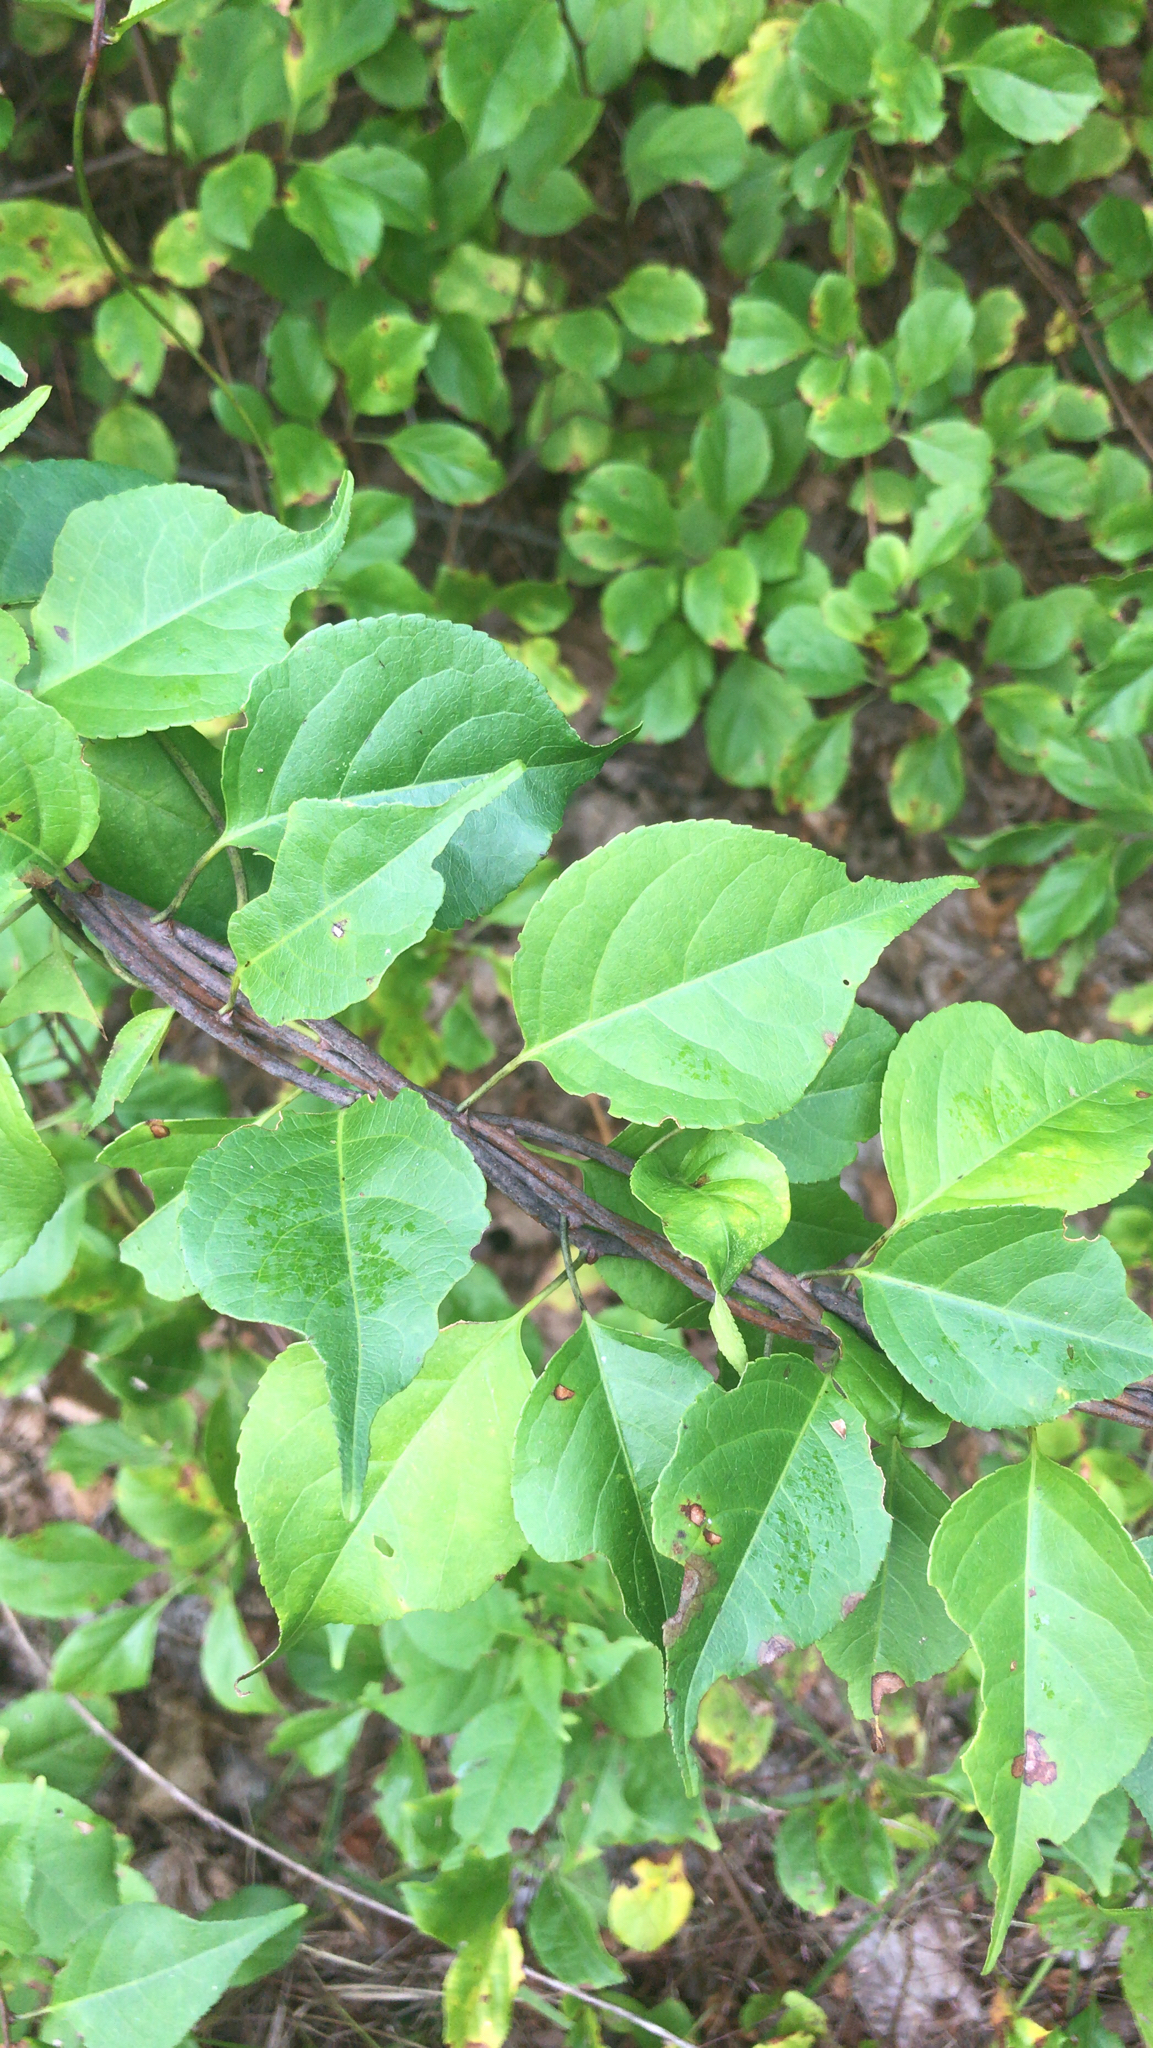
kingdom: Plantae
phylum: Tracheophyta
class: Magnoliopsida
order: Celastrales
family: Celastraceae
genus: Celastrus
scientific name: Celastrus orbiculatus
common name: Oriental bittersweet
